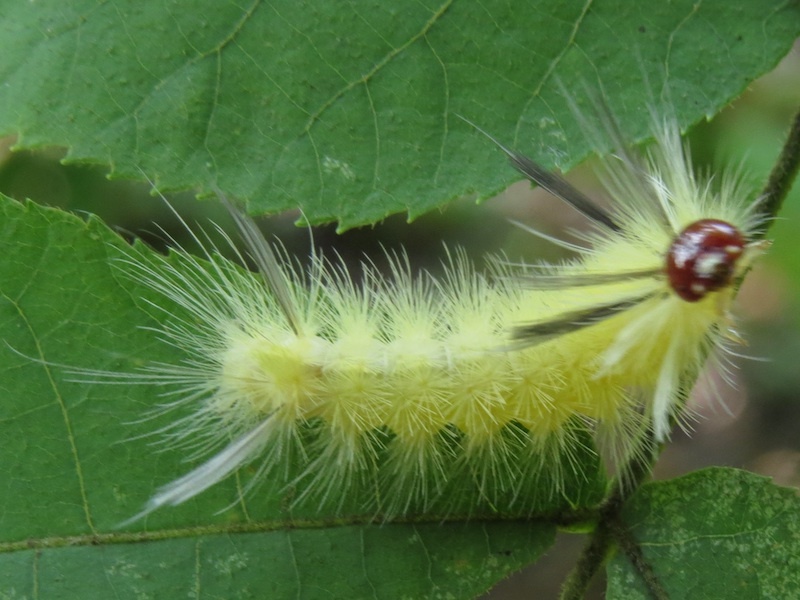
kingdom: Animalia
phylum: Arthropoda
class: Insecta
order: Lepidoptera
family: Erebidae
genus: Halysidota
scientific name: Halysidota tessellaris
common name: Banded tussock moth
